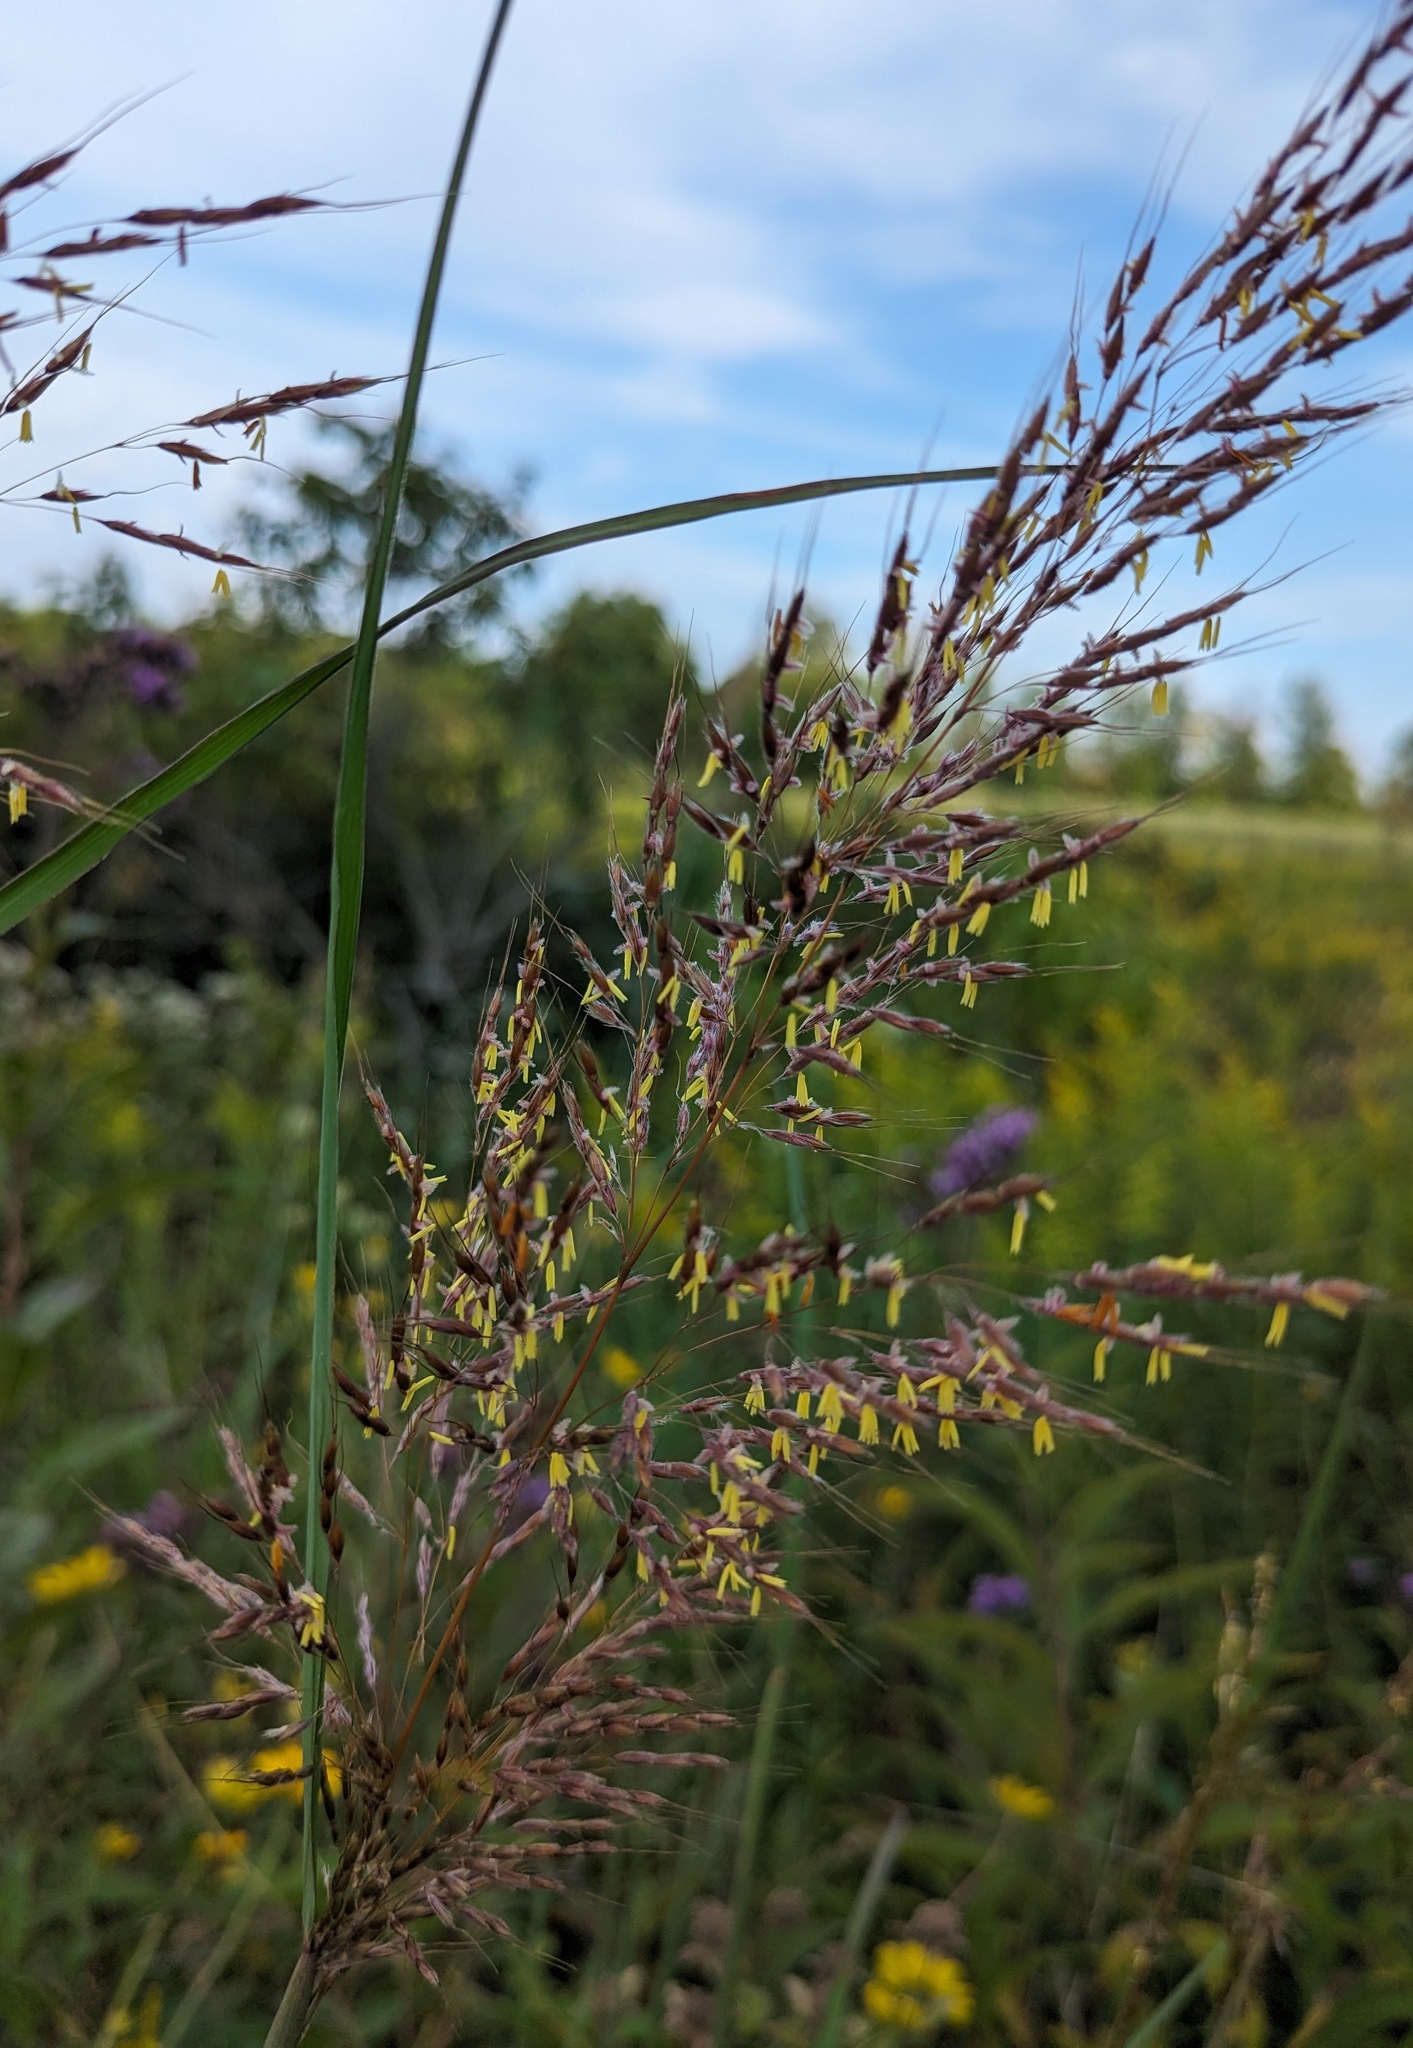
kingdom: Plantae
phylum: Tracheophyta
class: Liliopsida
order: Poales
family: Poaceae
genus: Sorghastrum
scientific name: Sorghastrum nutans
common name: Indian grass
